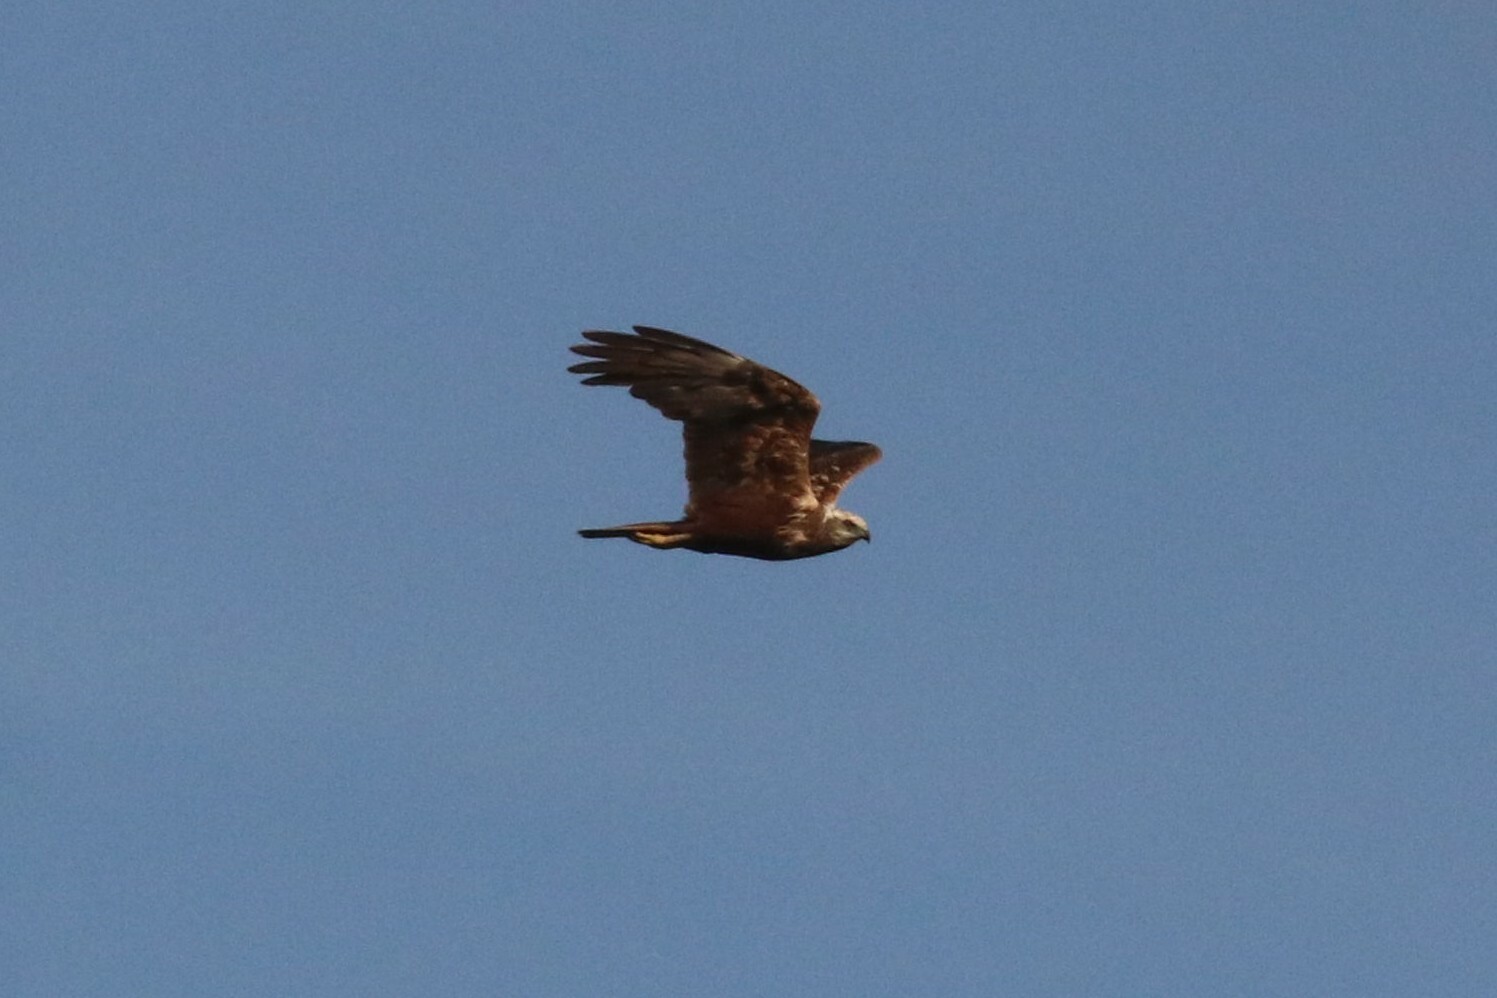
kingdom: Animalia
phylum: Chordata
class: Aves
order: Accipitriformes
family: Accipitridae
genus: Circus
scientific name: Circus aeruginosus
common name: Western marsh harrier
